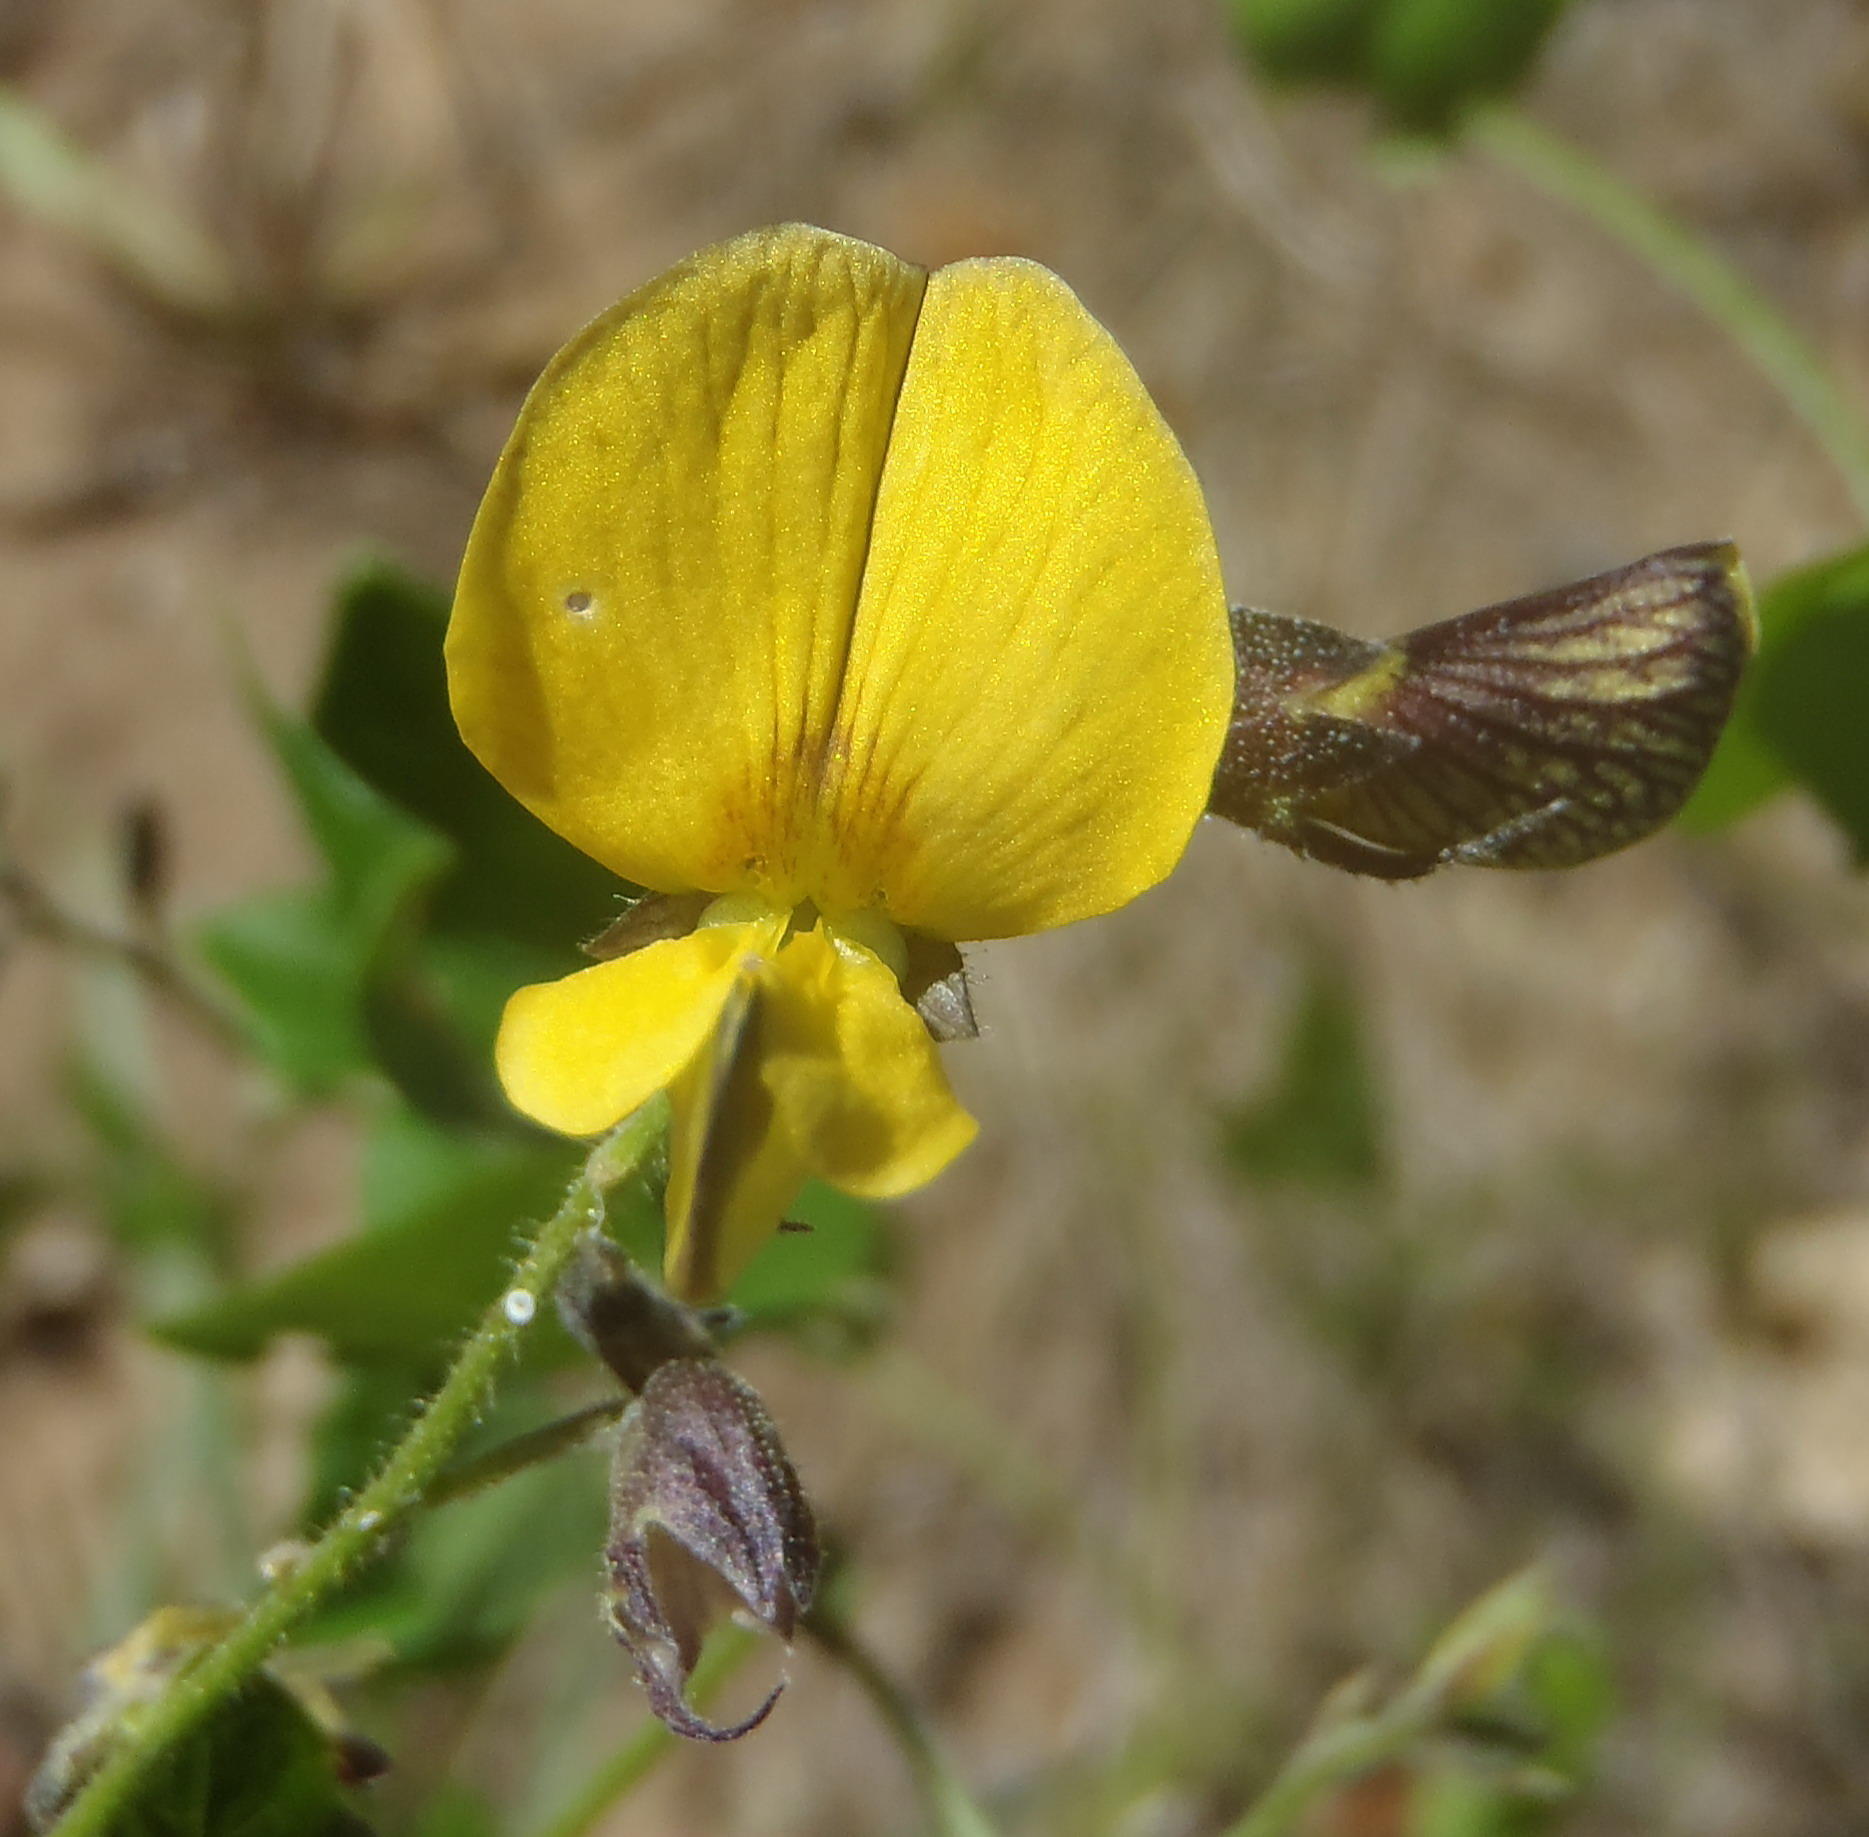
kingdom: Plantae
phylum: Tracheophyta
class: Magnoliopsida
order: Fabales
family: Fabaceae
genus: Rhynchosia
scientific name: Rhynchosia caribaea
